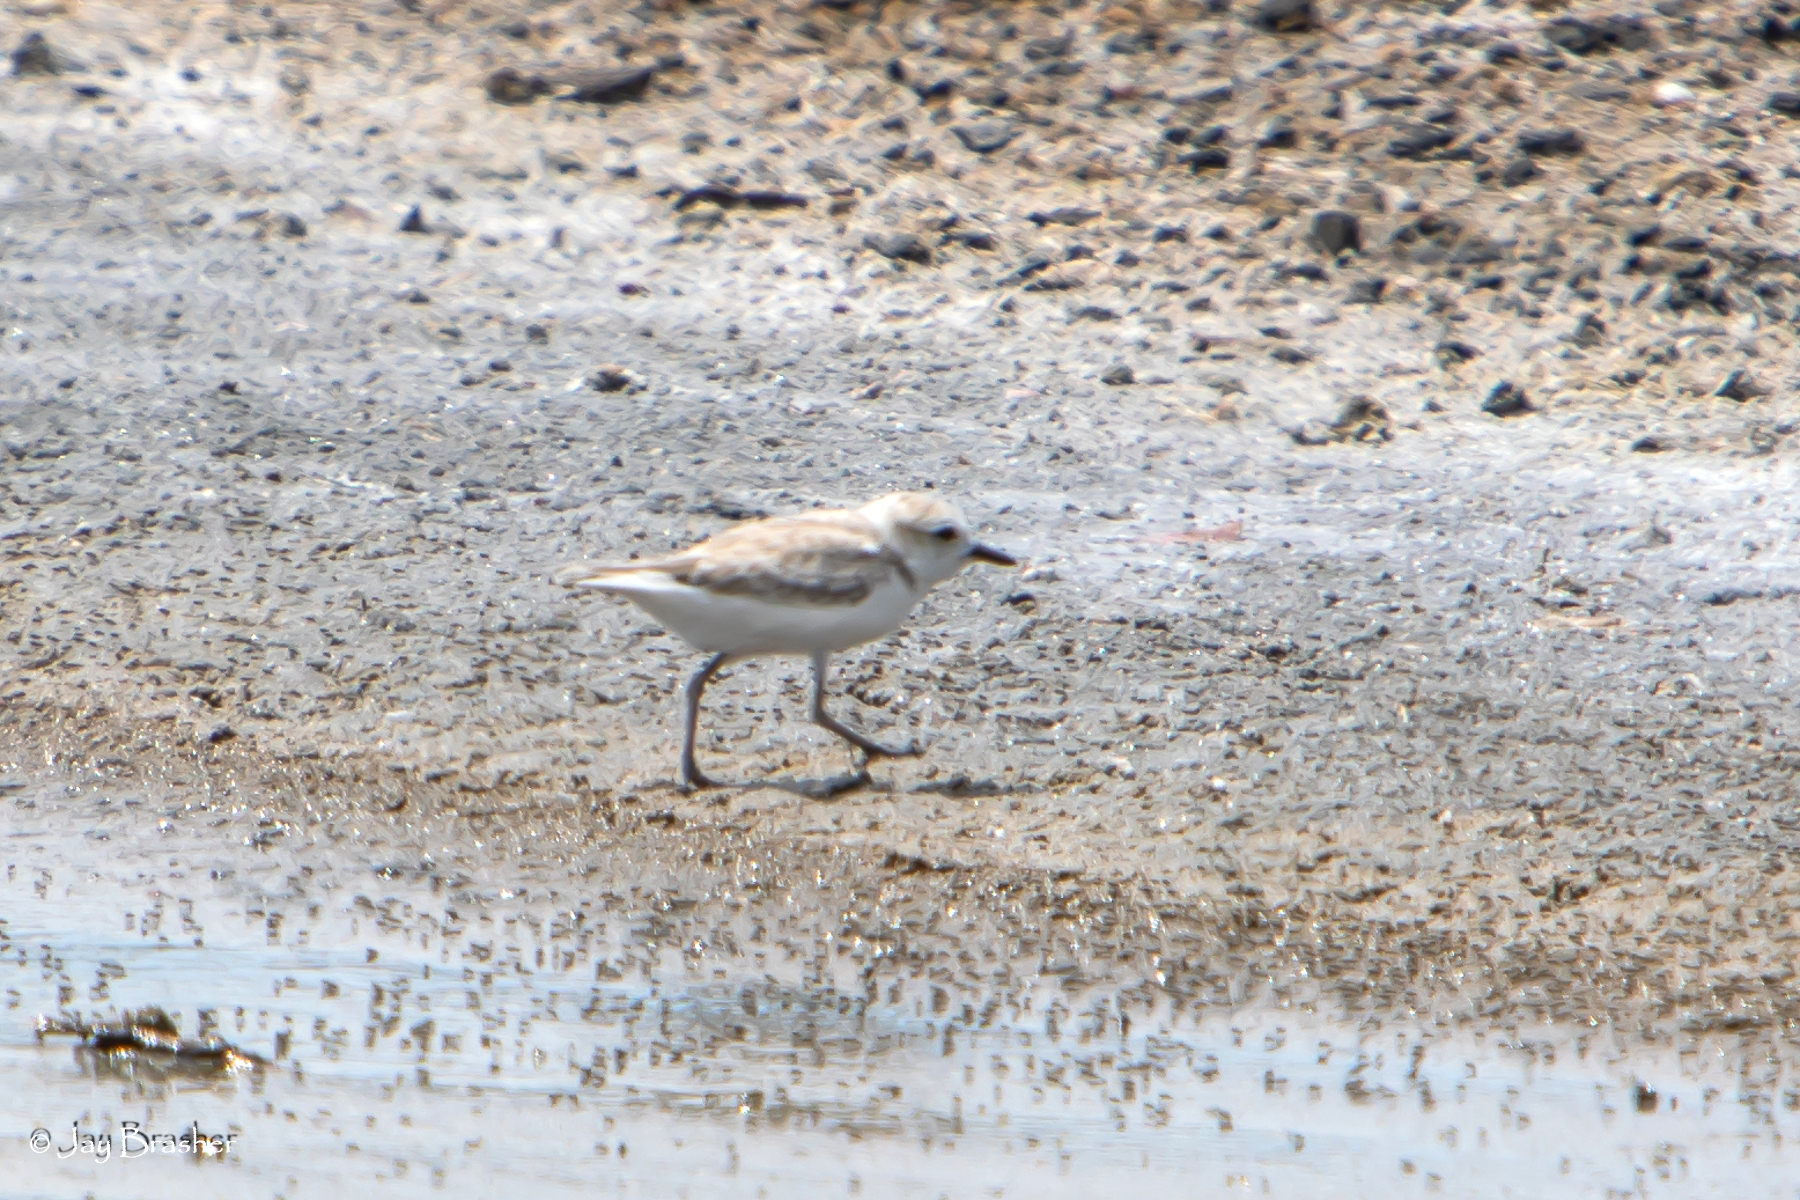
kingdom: Animalia
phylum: Chordata
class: Aves
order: Charadriiformes
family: Charadriidae
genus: Anarhynchus
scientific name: Anarhynchus
